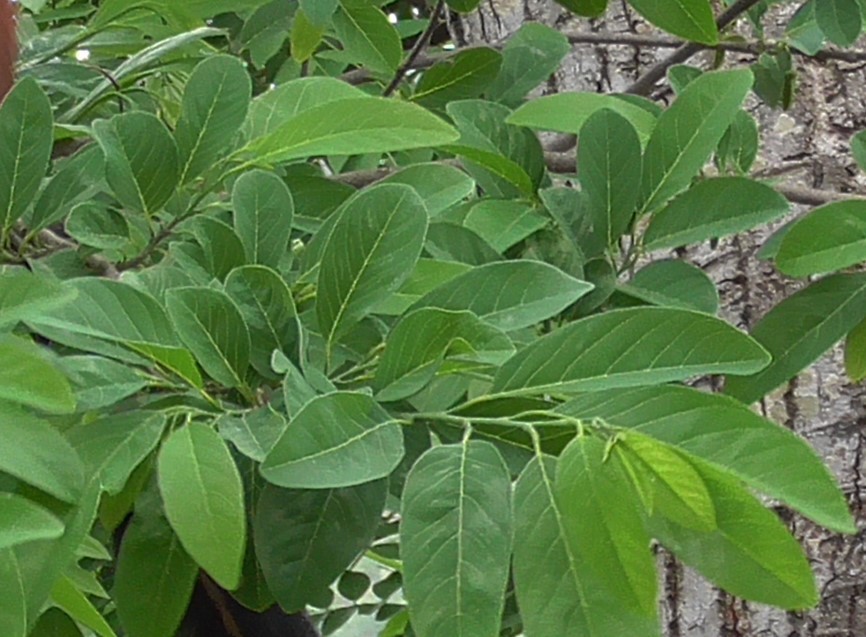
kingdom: Plantae
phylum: Tracheophyta
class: Magnoliopsida
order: Magnoliales
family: Annonaceae
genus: Annona
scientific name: Annona squamosa
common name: Custard-apple
